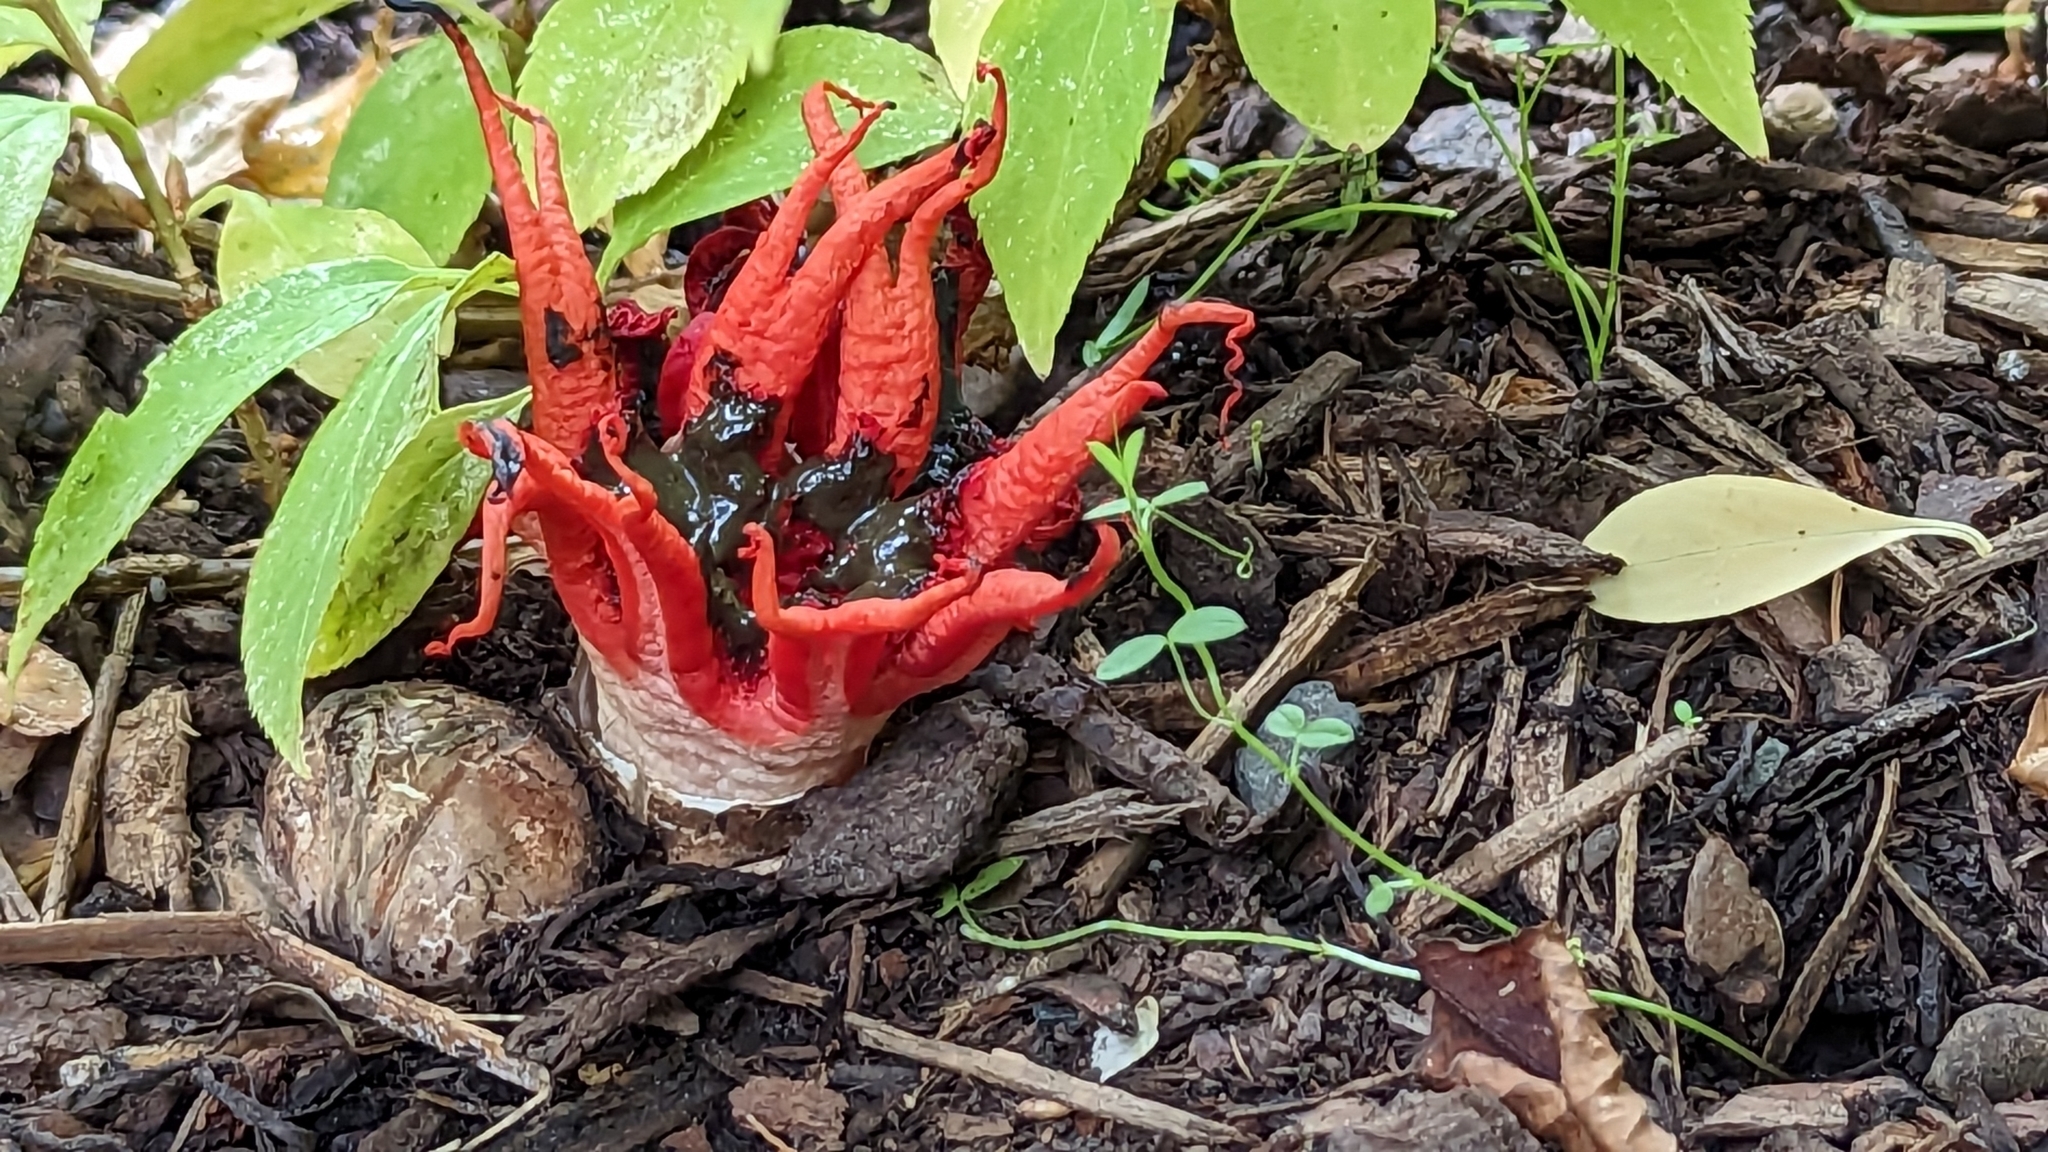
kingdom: Fungi
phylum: Basidiomycota
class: Agaricomycetes
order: Phallales
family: Phallaceae
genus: Aseroe
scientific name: Aseroe rubra
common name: Starfish fungus
